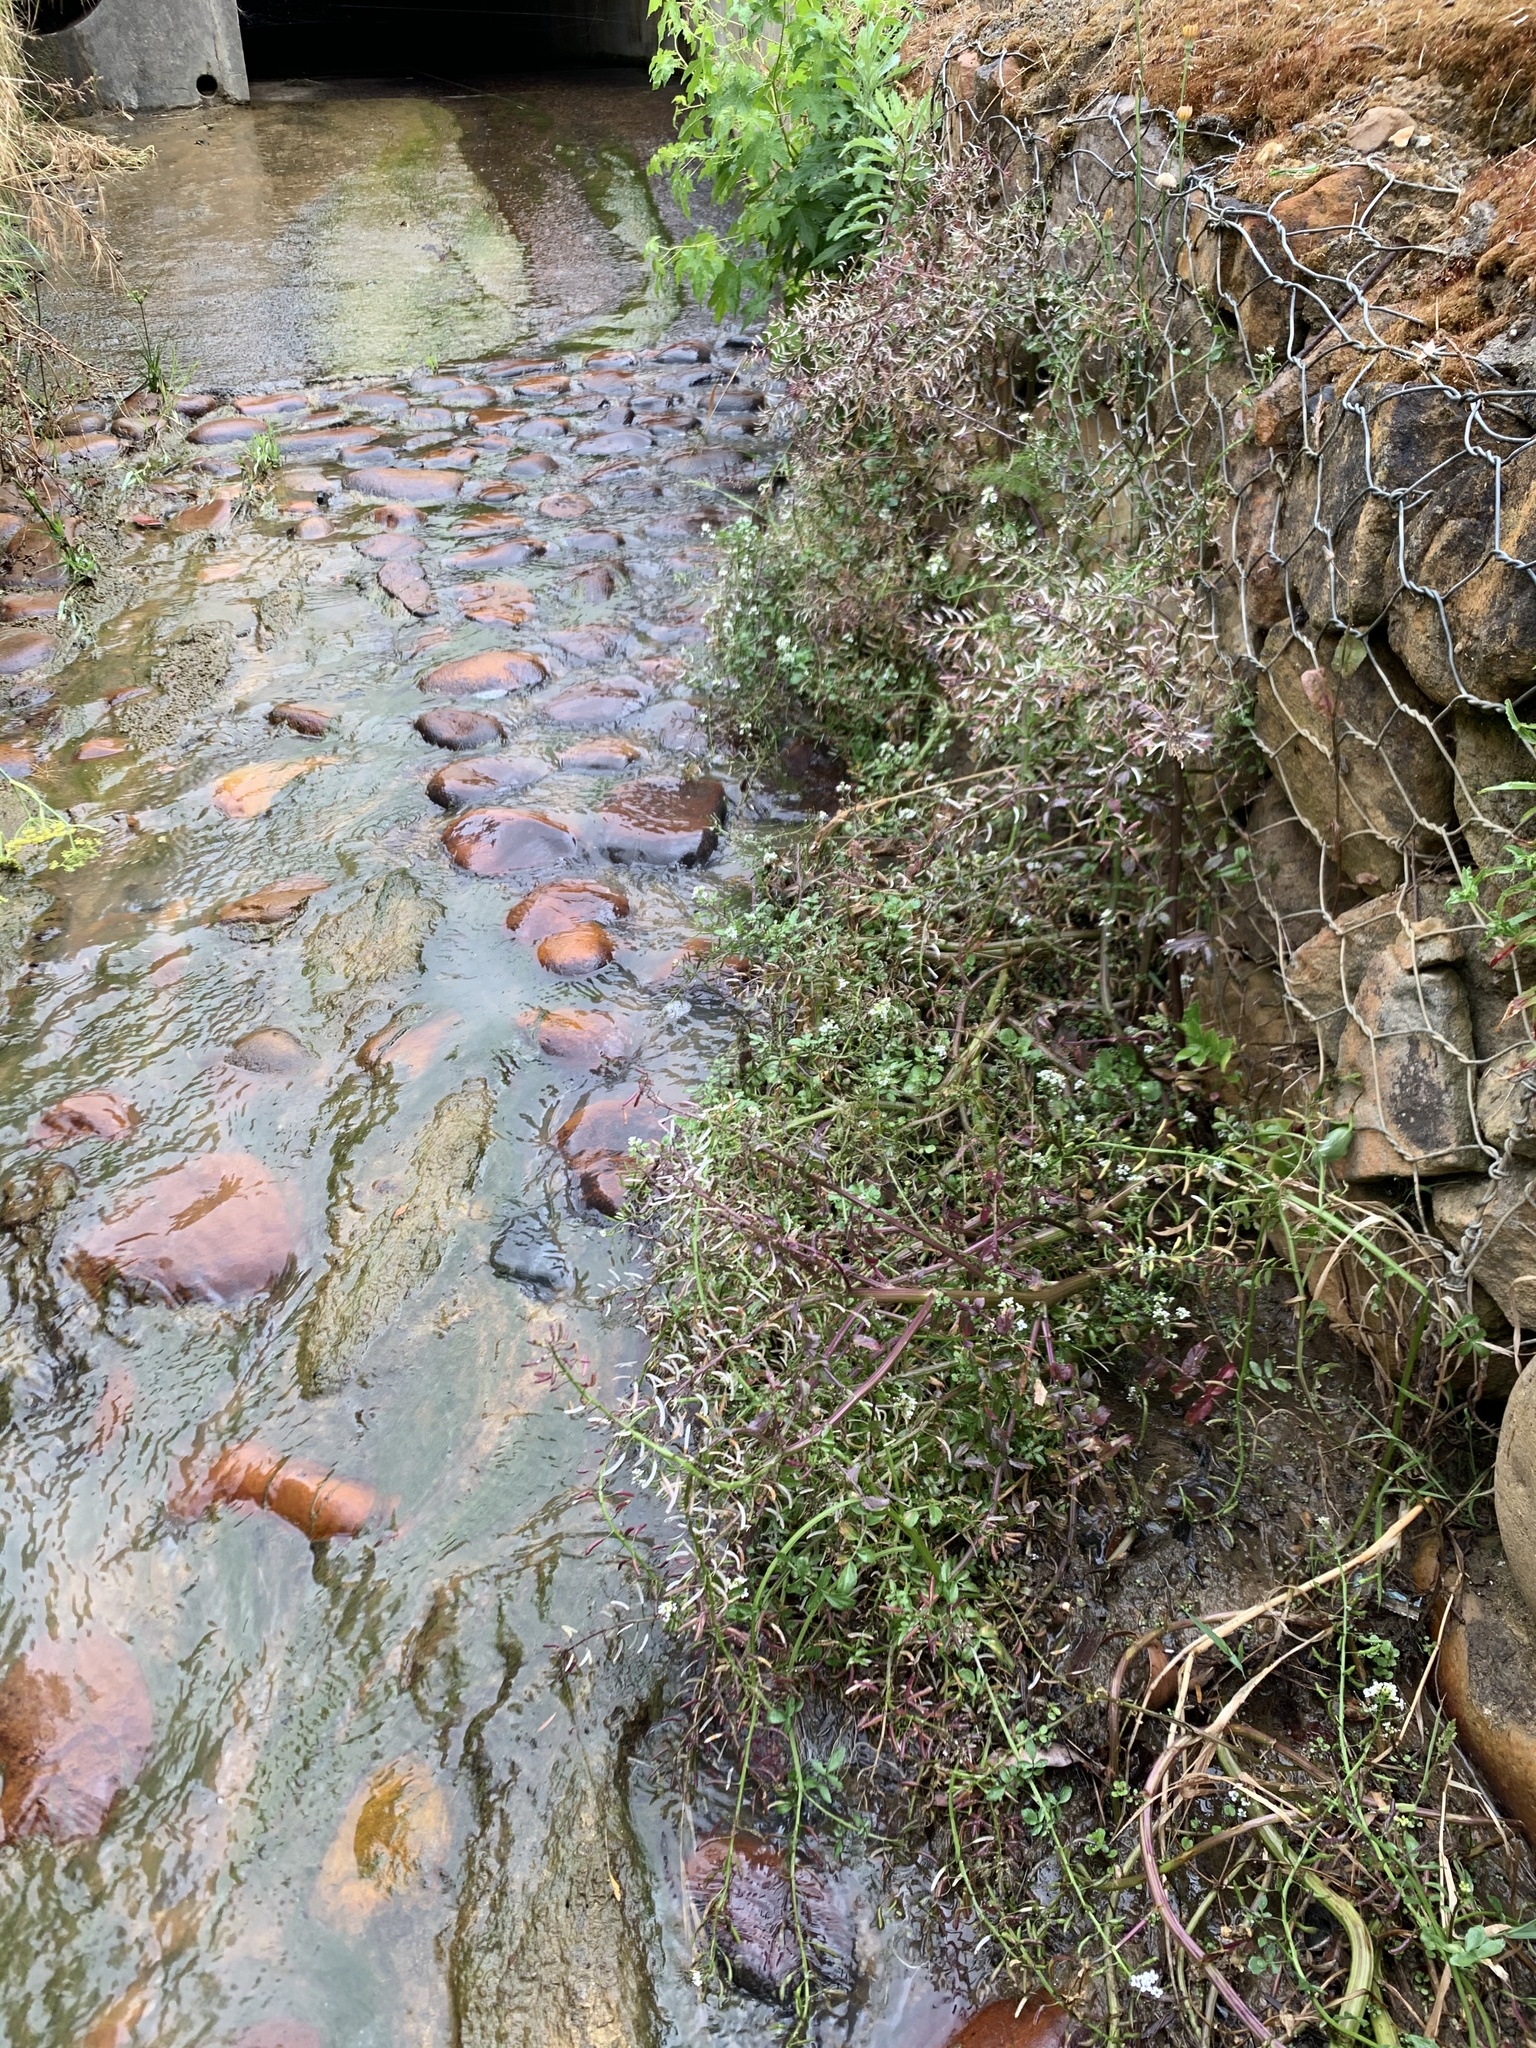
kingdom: Plantae
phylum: Tracheophyta
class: Magnoliopsida
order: Brassicales
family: Brassicaceae
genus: Nasturtium
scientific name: Nasturtium officinale
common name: Watercress
